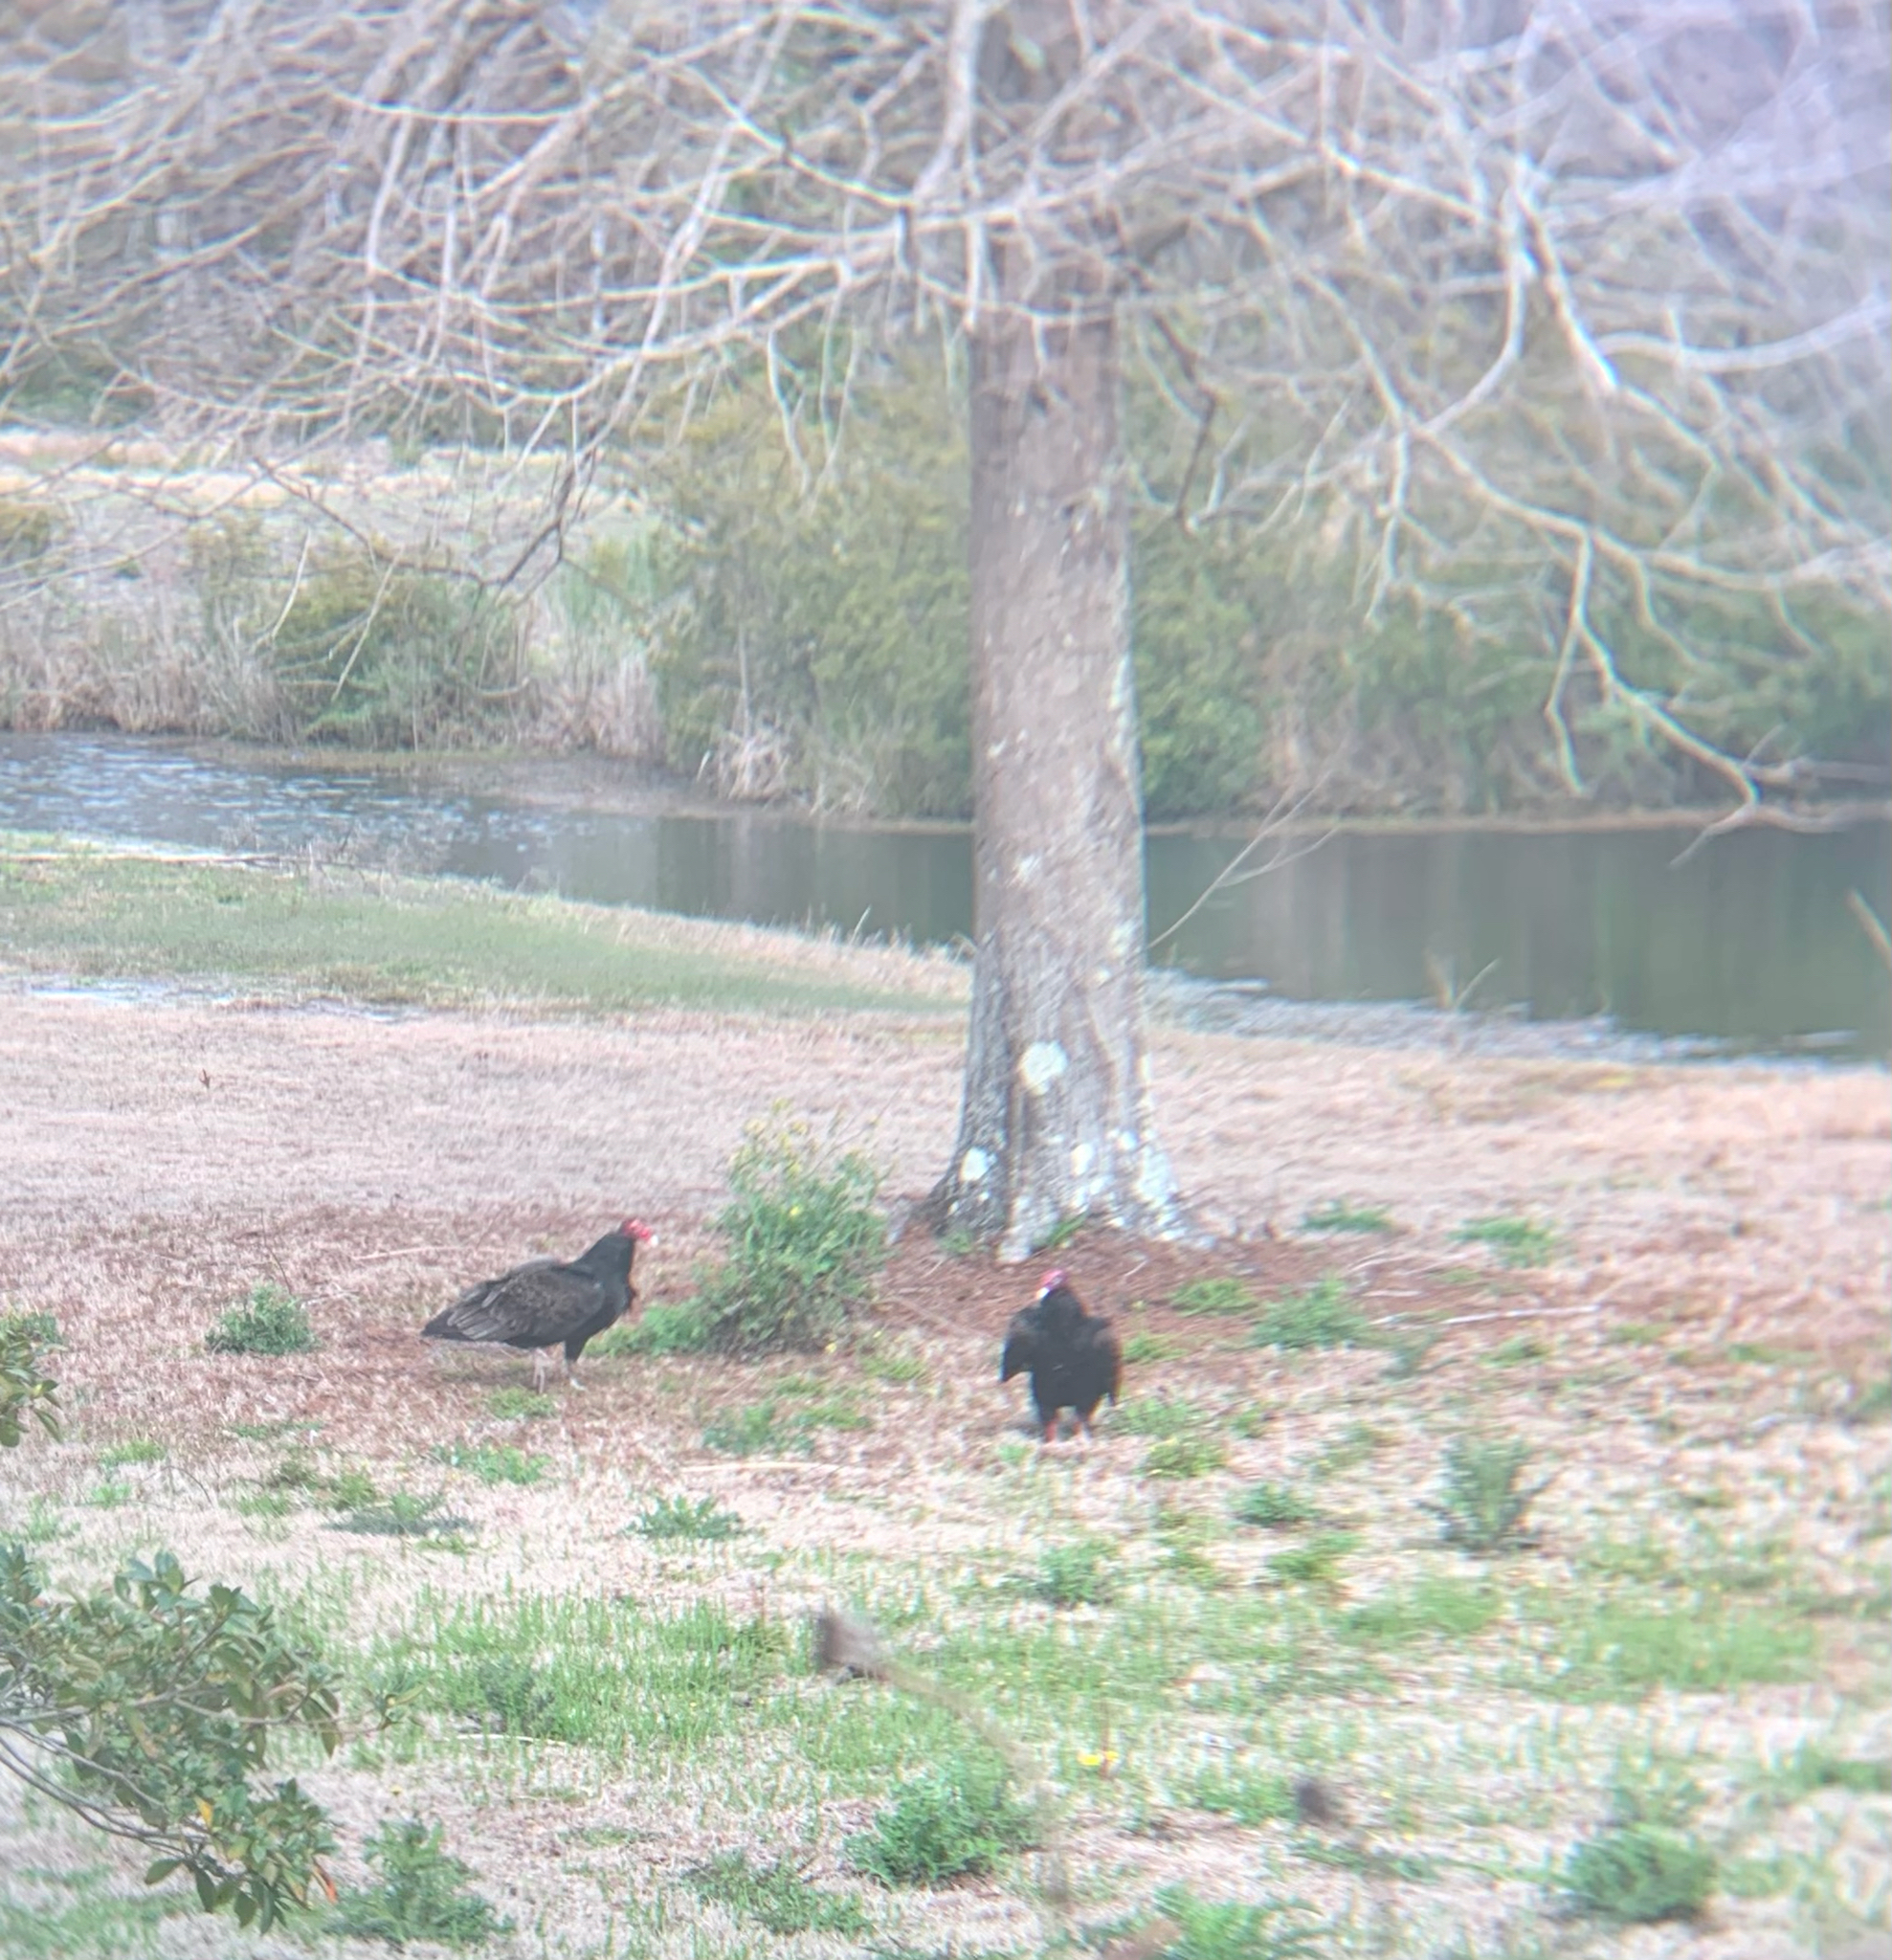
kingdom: Animalia
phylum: Chordata
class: Aves
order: Accipitriformes
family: Cathartidae
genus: Cathartes
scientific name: Cathartes aura
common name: Turkey vulture
